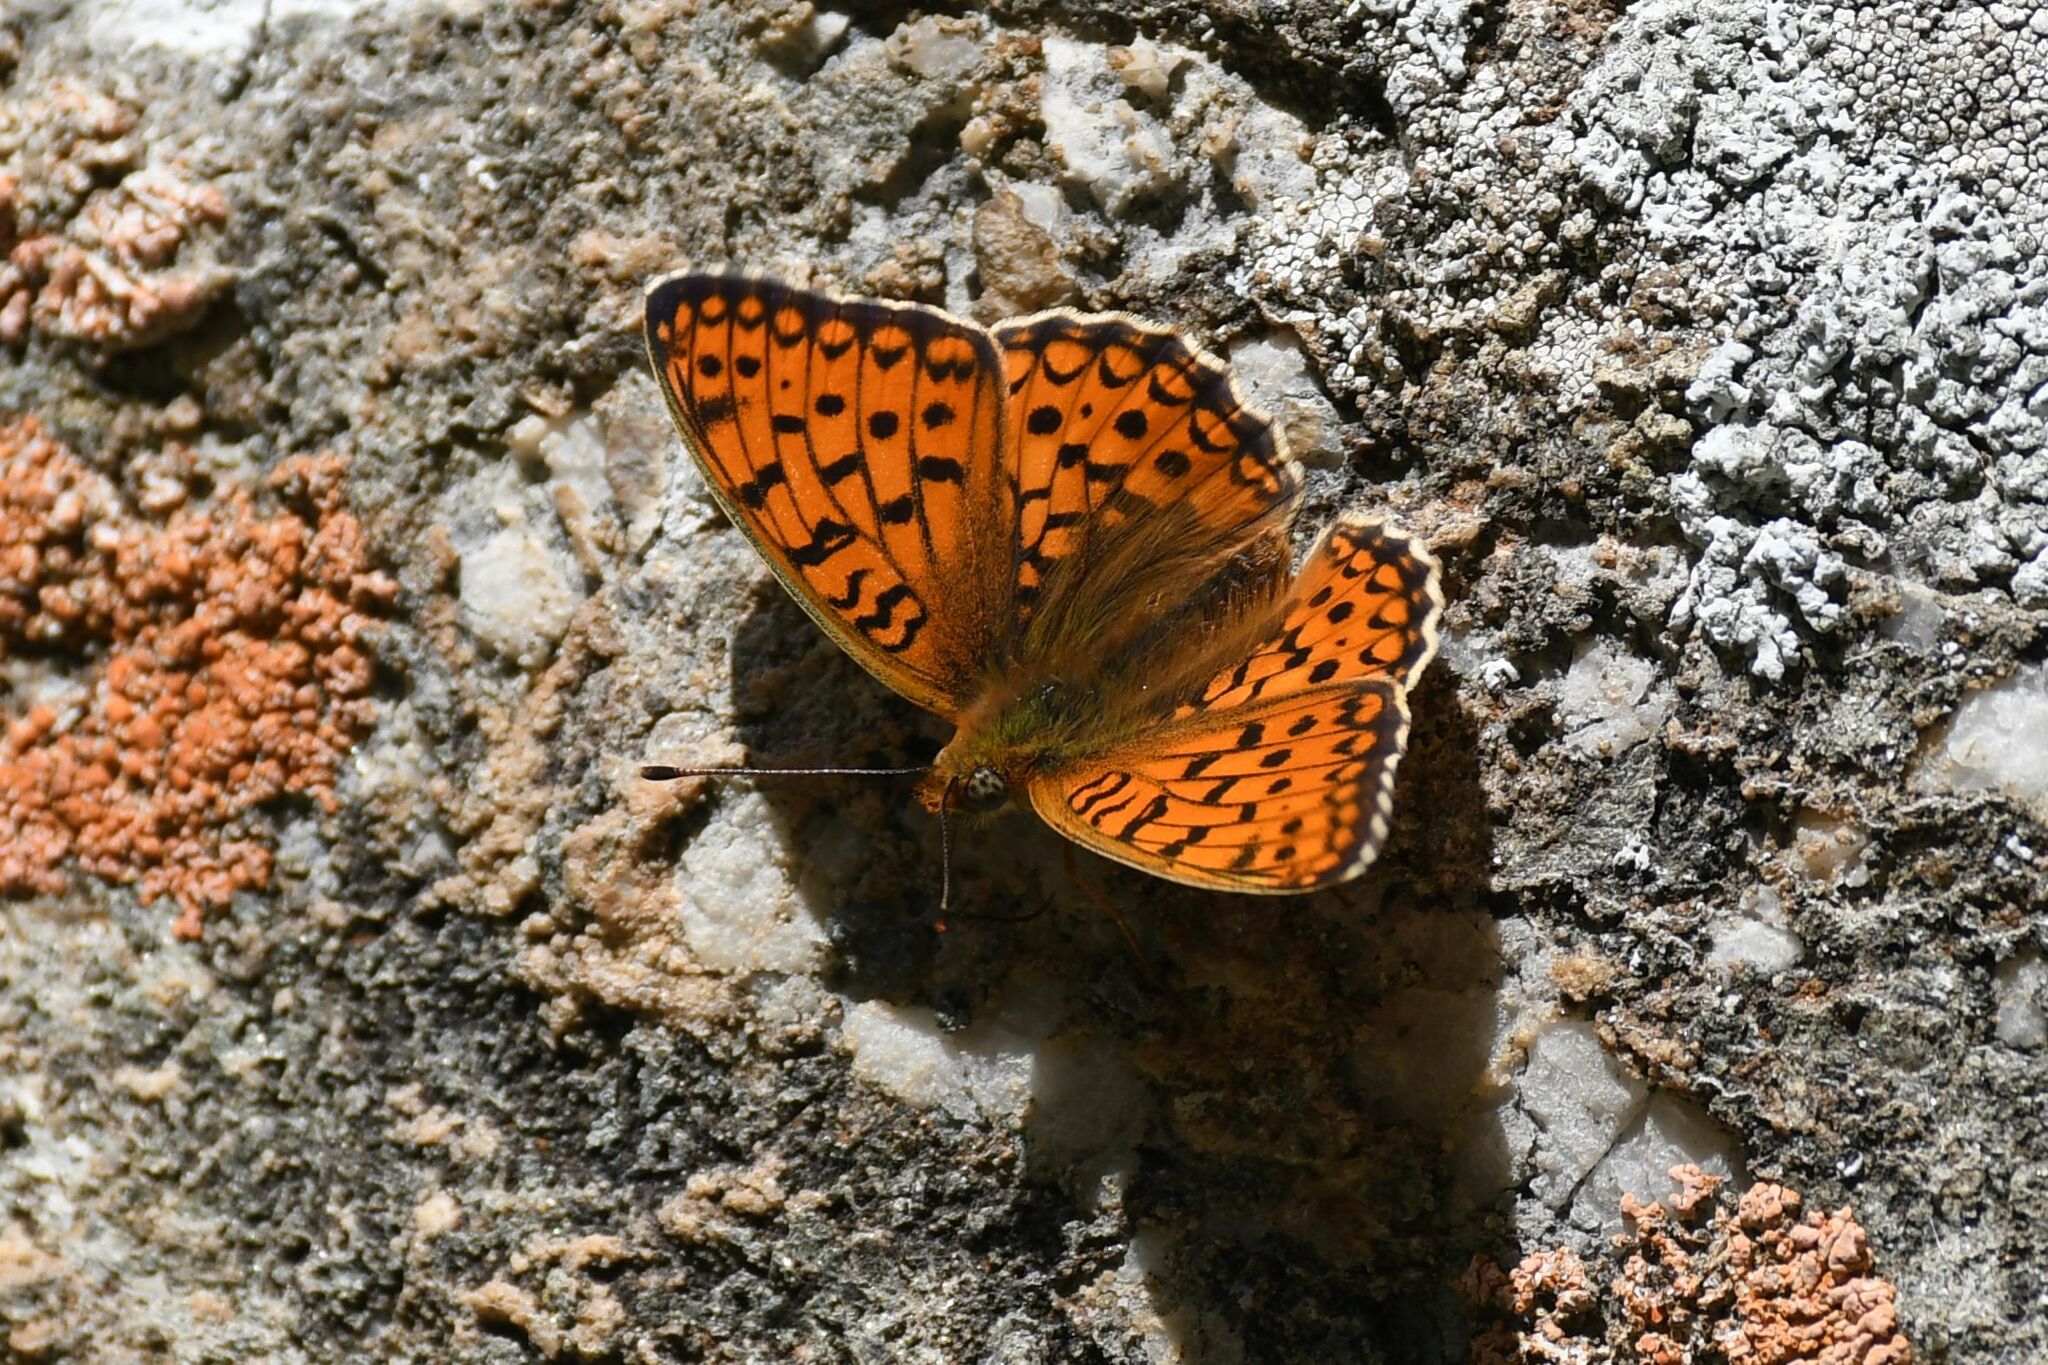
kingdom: Animalia
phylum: Arthropoda
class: Insecta
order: Lepidoptera
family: Nymphalidae
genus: Fabriciana
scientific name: Fabriciana niobe
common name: Niobe fritillary
